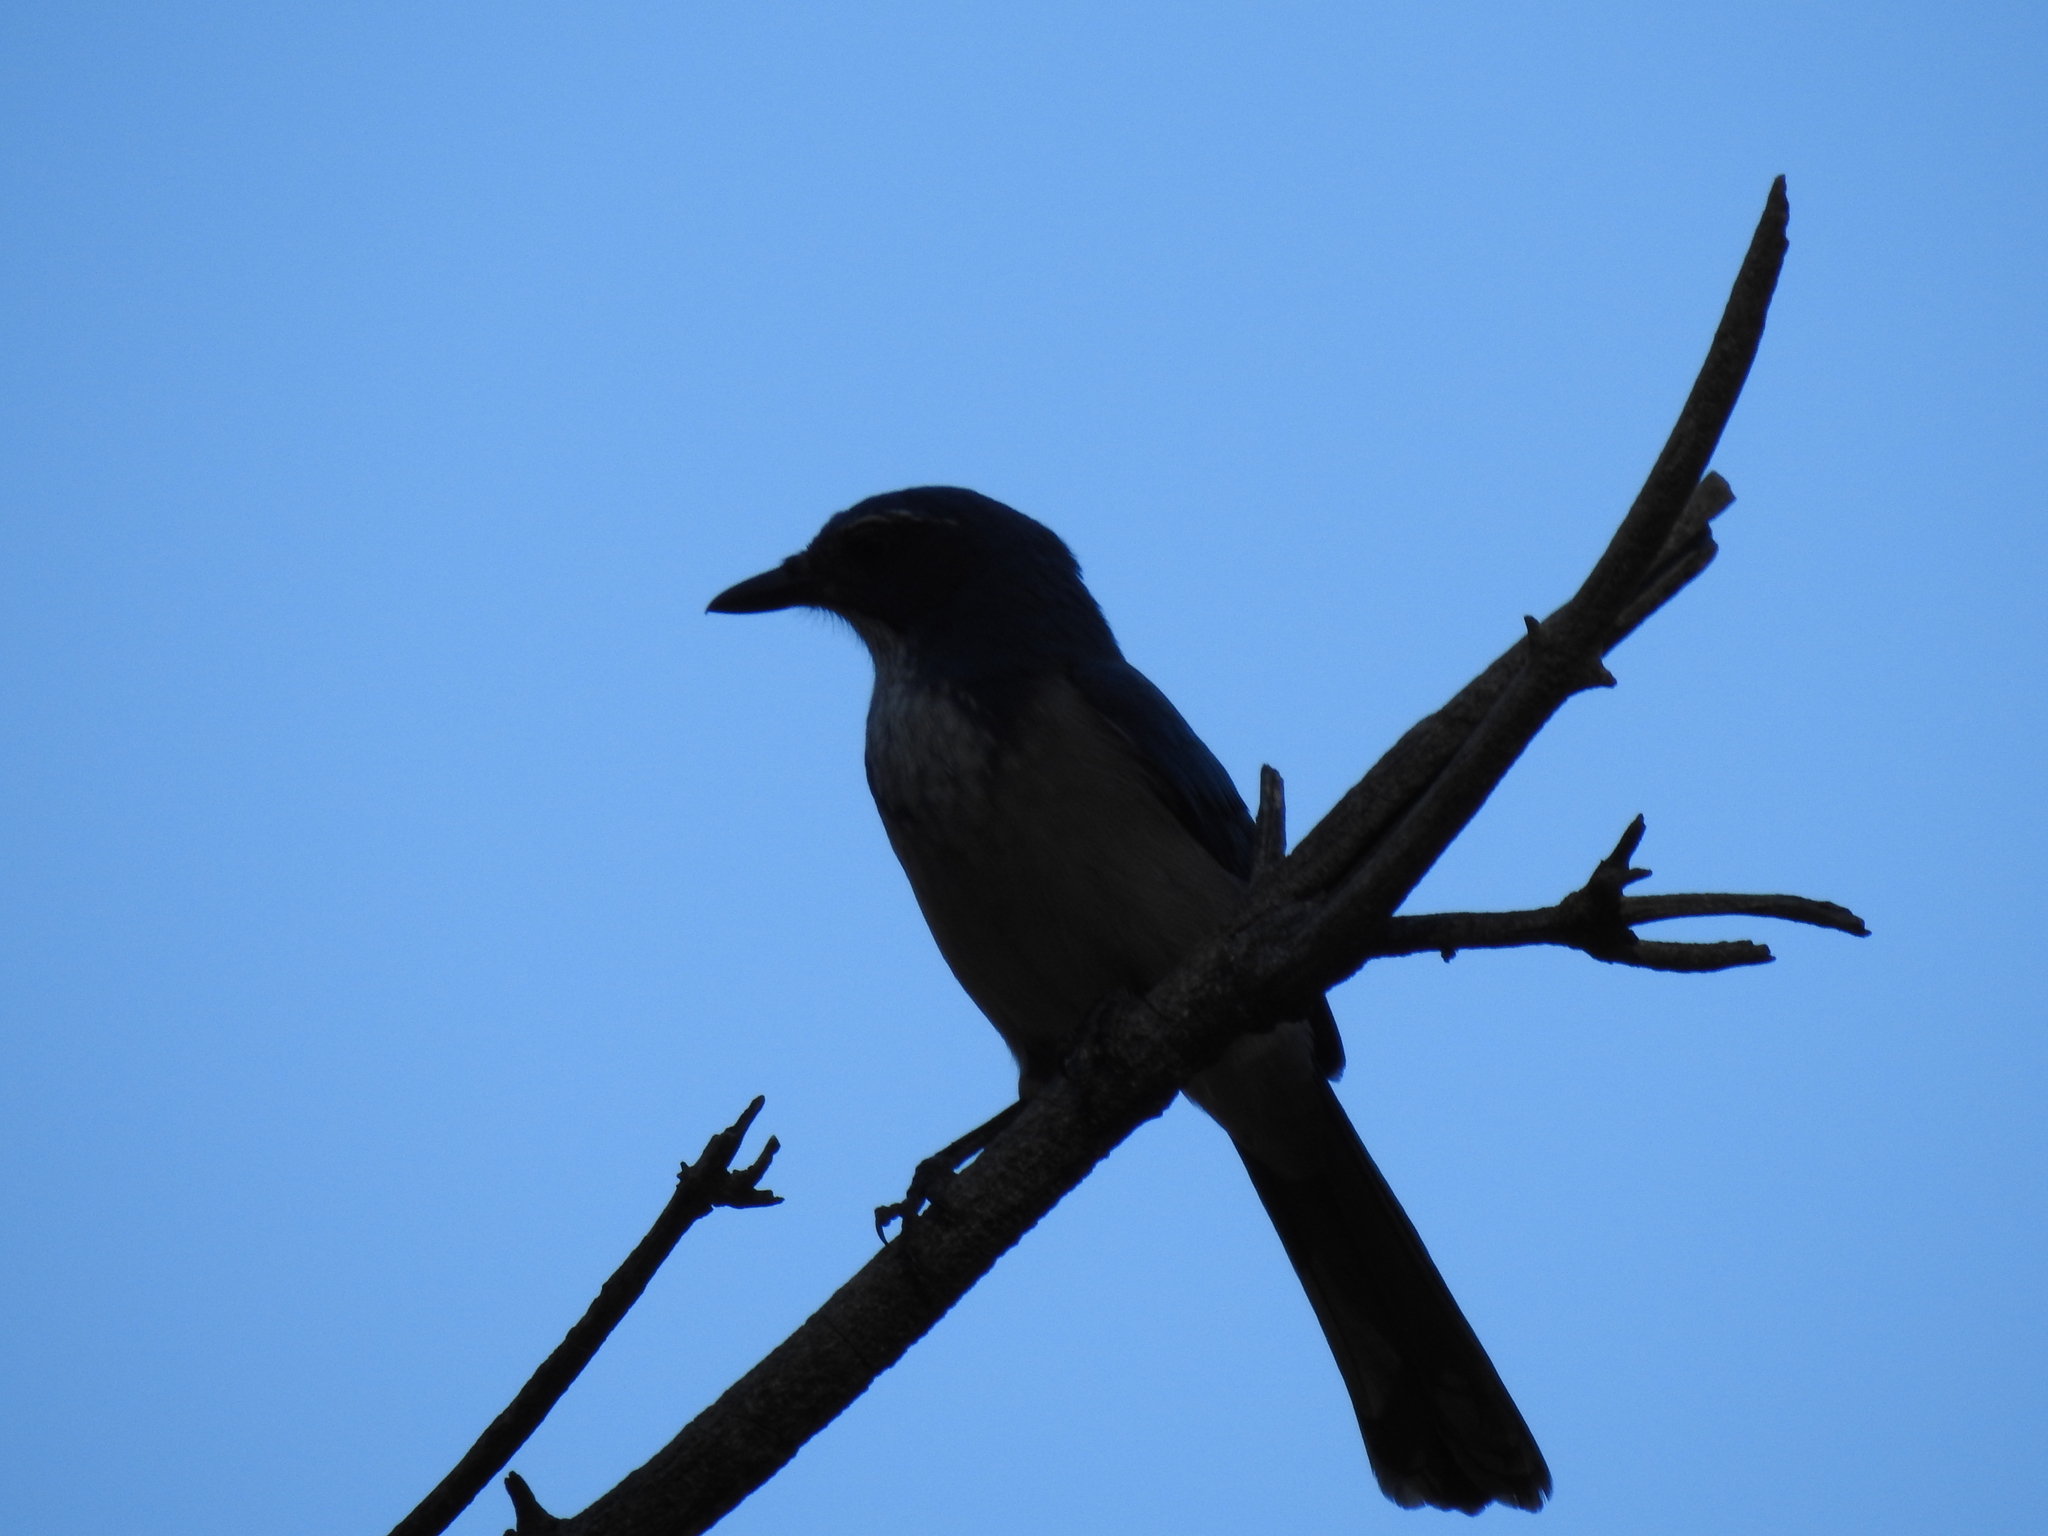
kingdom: Animalia
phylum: Chordata
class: Aves
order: Passeriformes
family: Corvidae
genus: Aphelocoma
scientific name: Aphelocoma californica
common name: California scrub-jay
